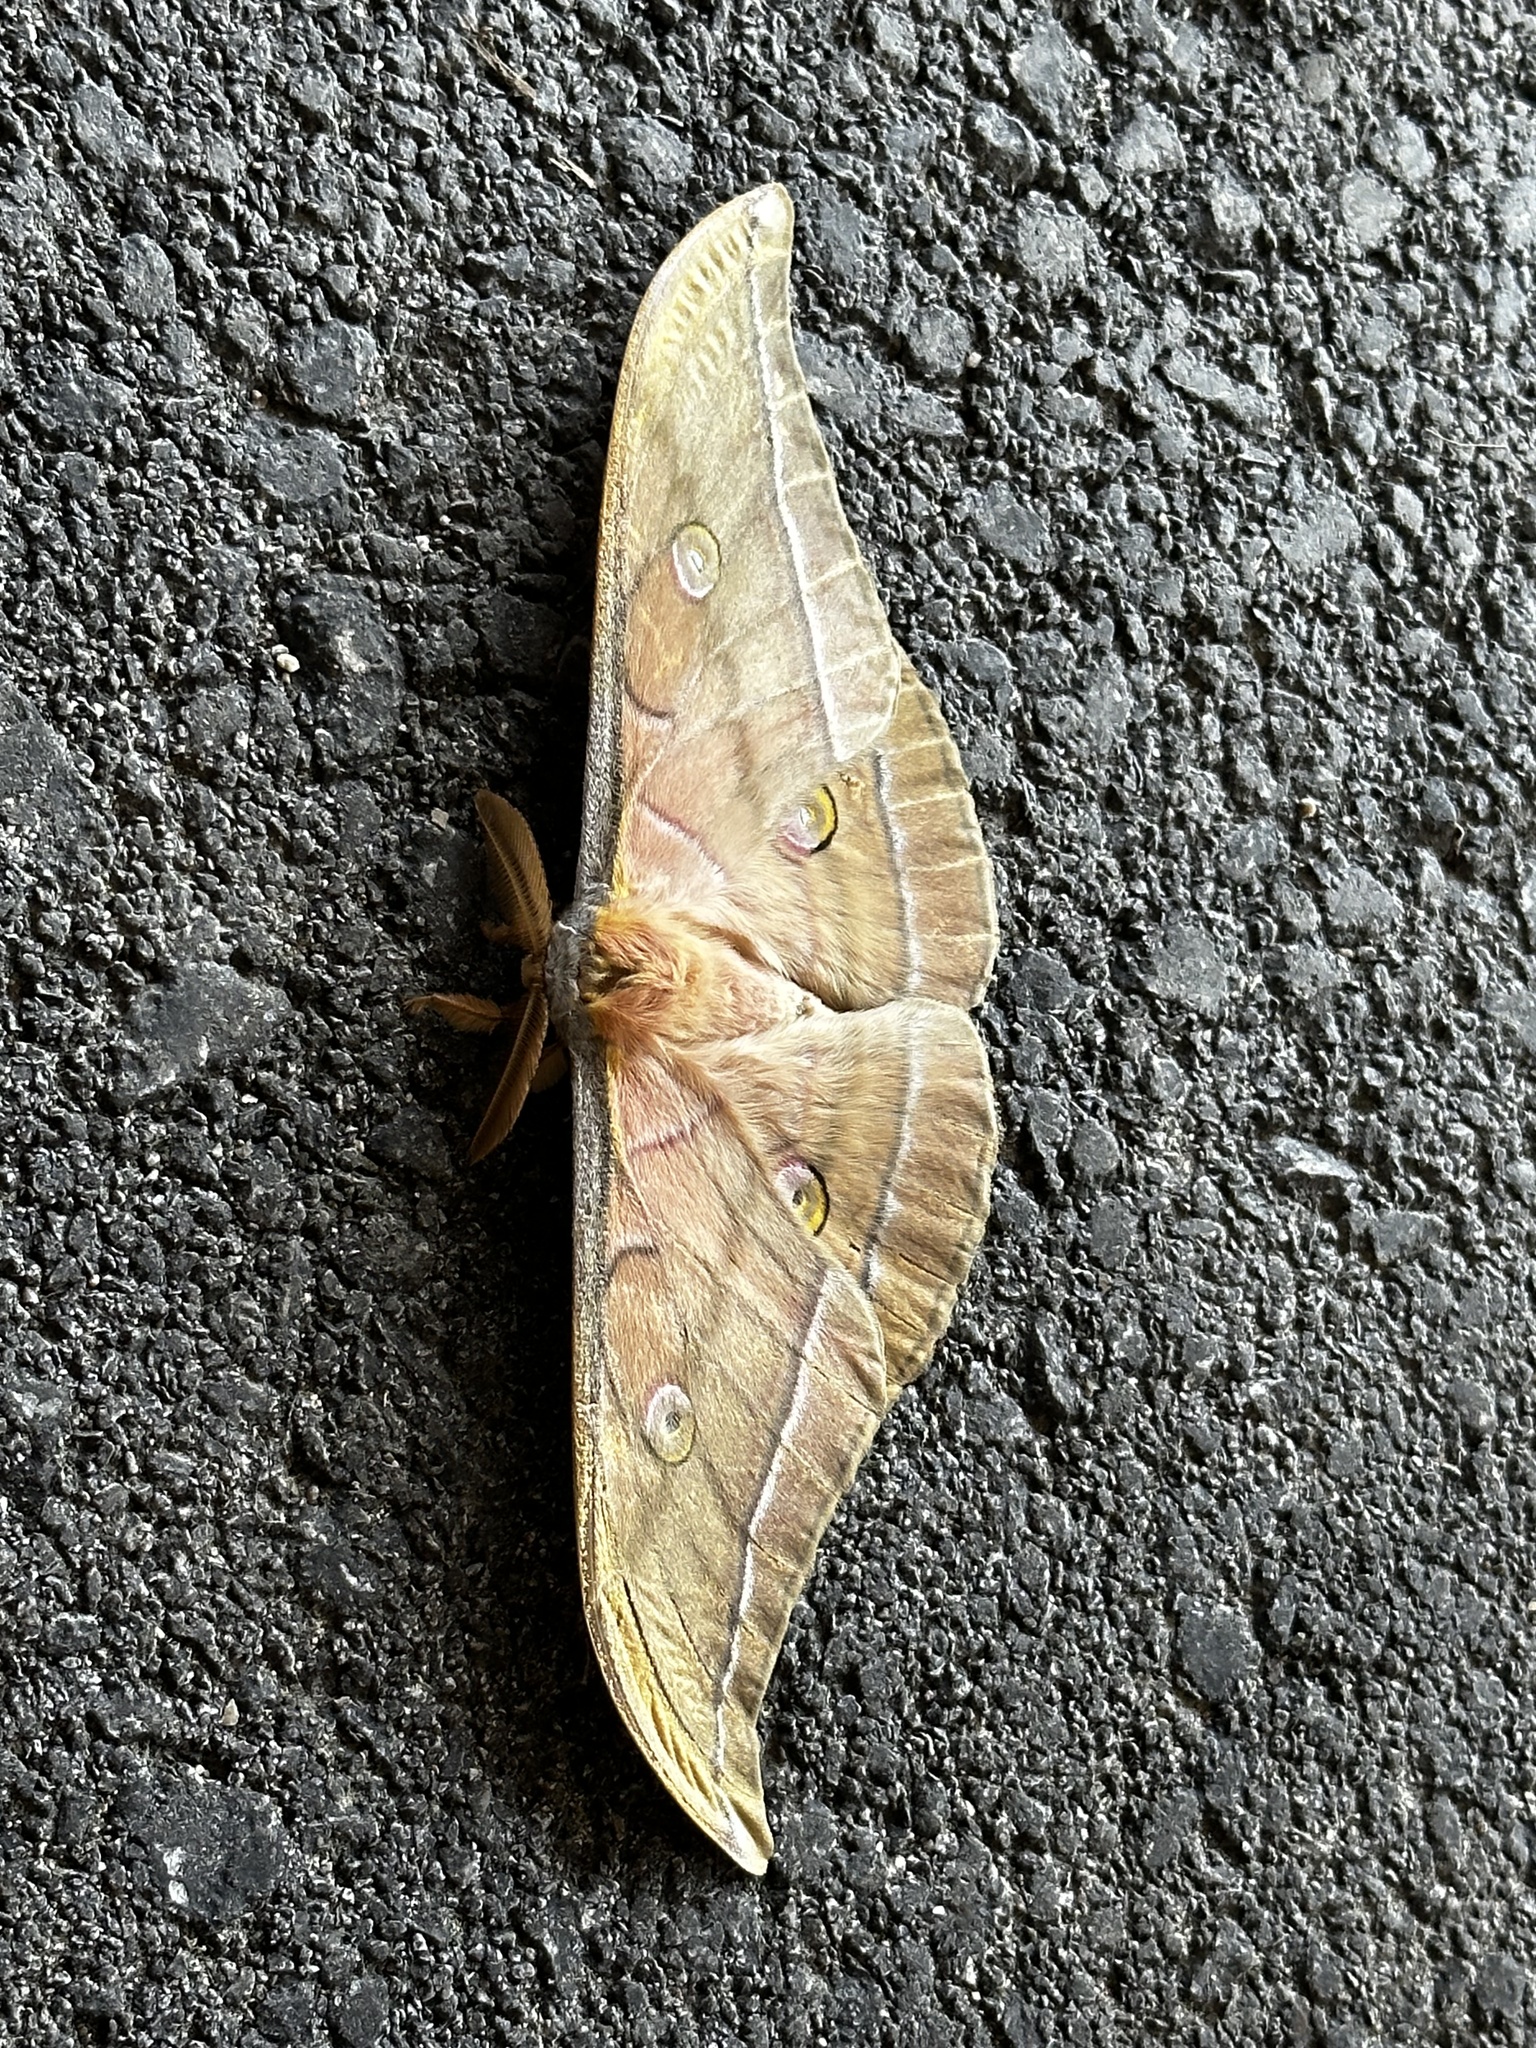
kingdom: Animalia
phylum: Arthropoda
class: Insecta
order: Lepidoptera
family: Saturniidae
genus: Antheraea
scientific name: Antheraea yamamai
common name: Japanese oak silk moth
